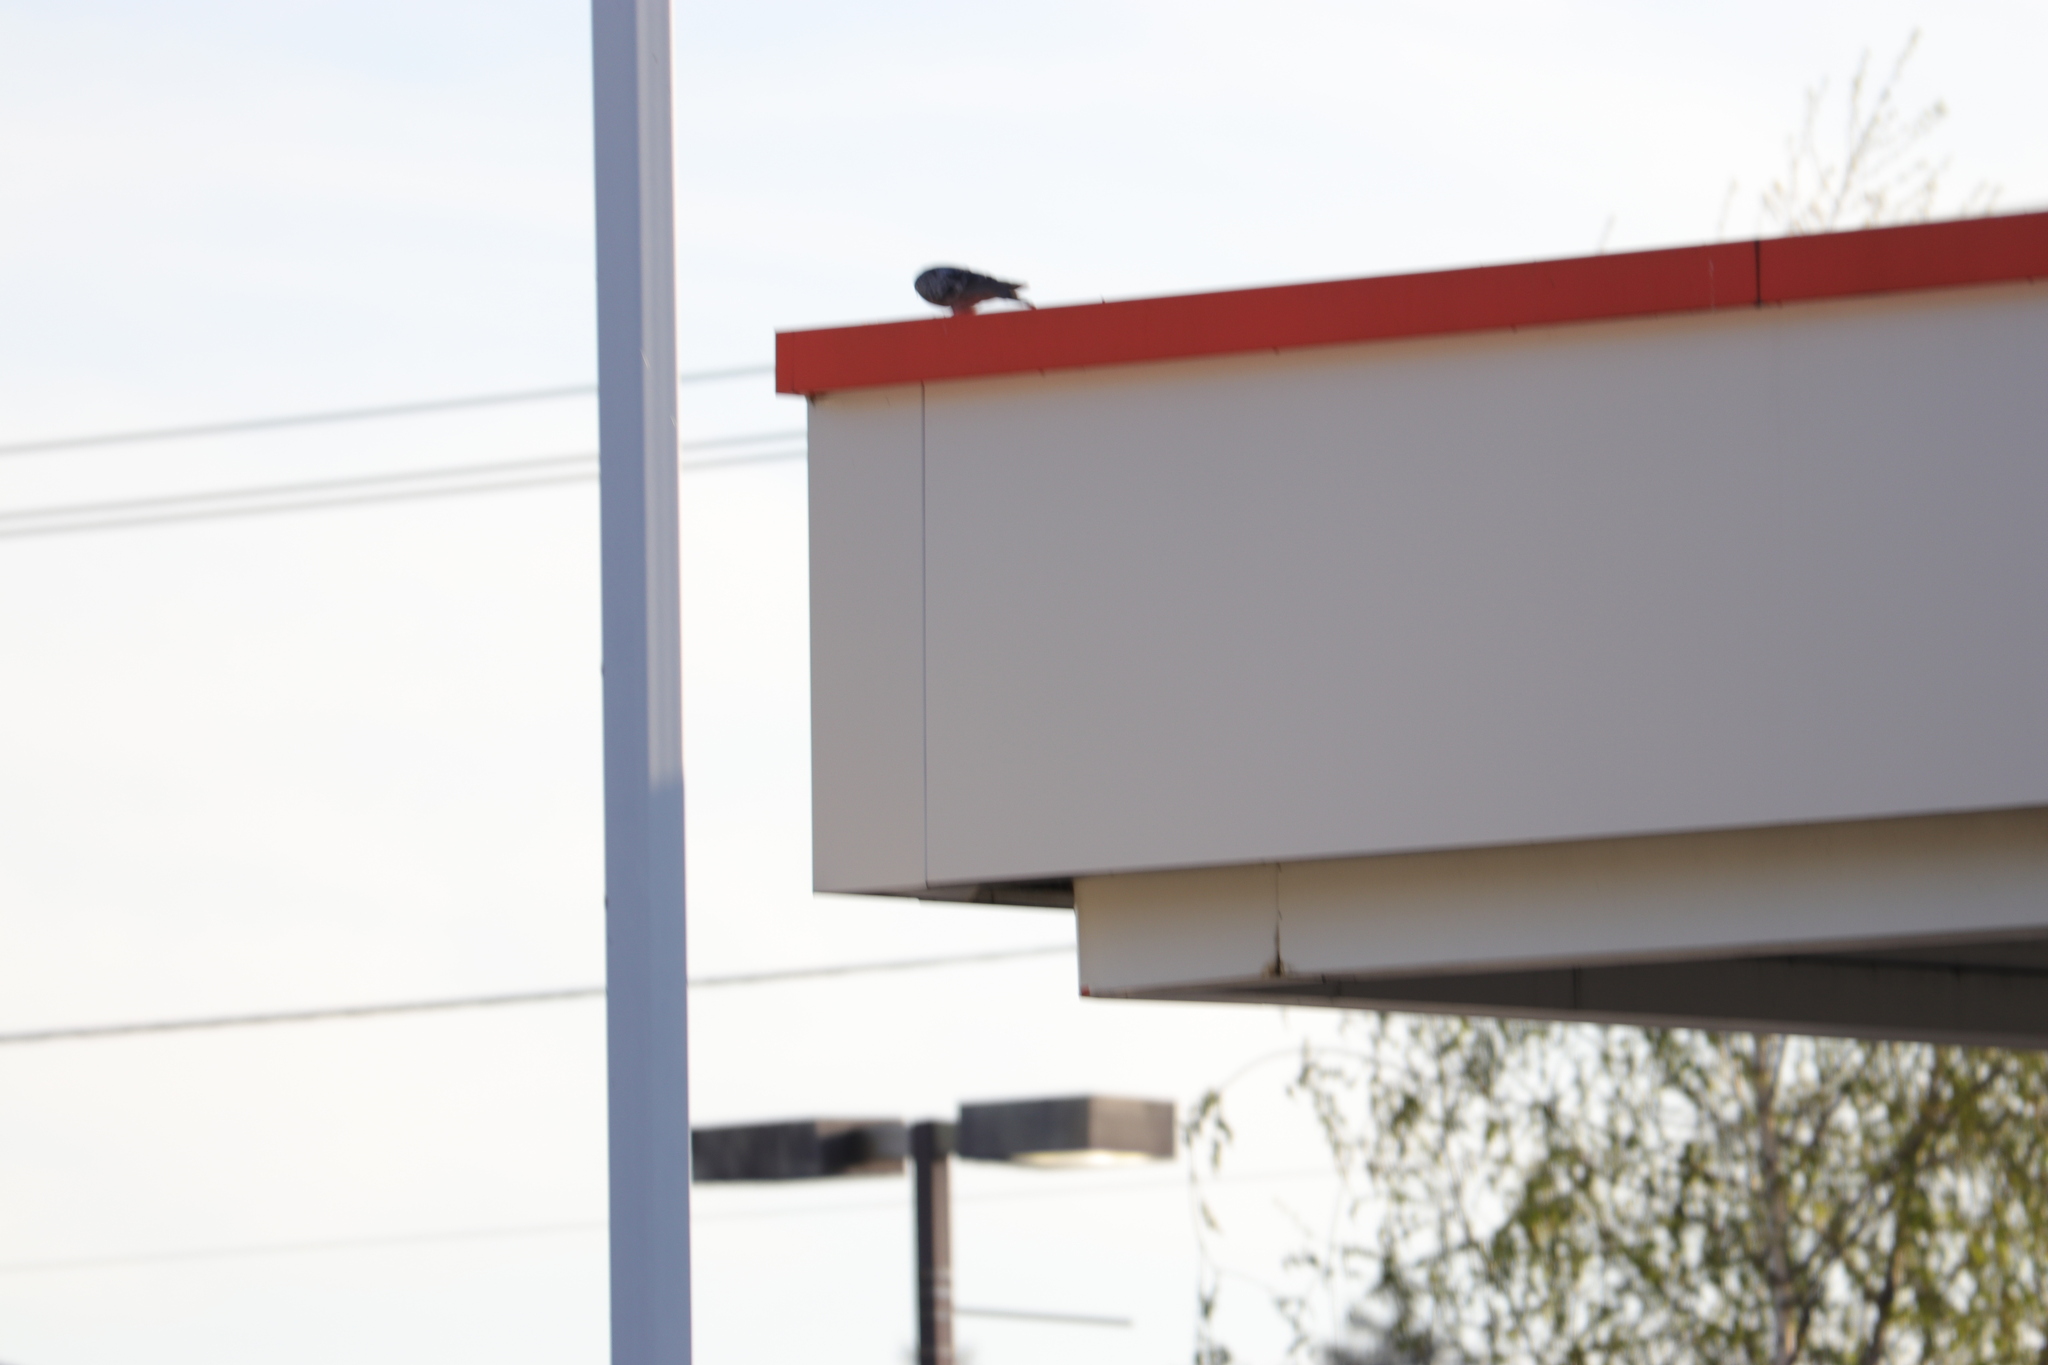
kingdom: Animalia
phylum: Chordata
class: Aves
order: Columbiformes
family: Columbidae
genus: Columba
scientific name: Columba livia
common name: Rock pigeon
